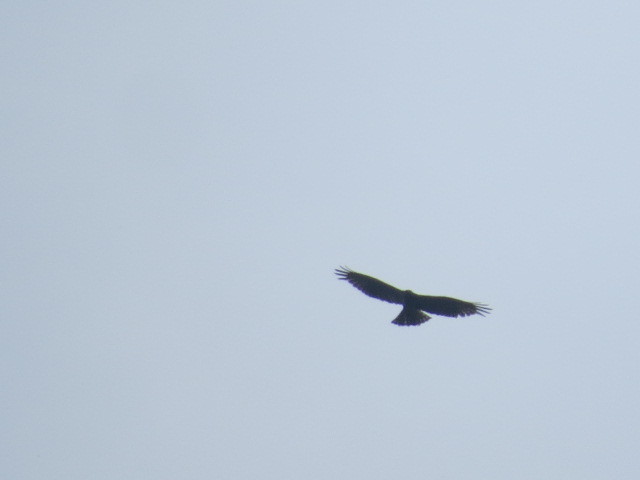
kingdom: Animalia
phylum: Chordata
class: Aves
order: Accipitriformes
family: Accipitridae
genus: Circaetus
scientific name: Circaetus gallicus
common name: Short-toed snake eagle
